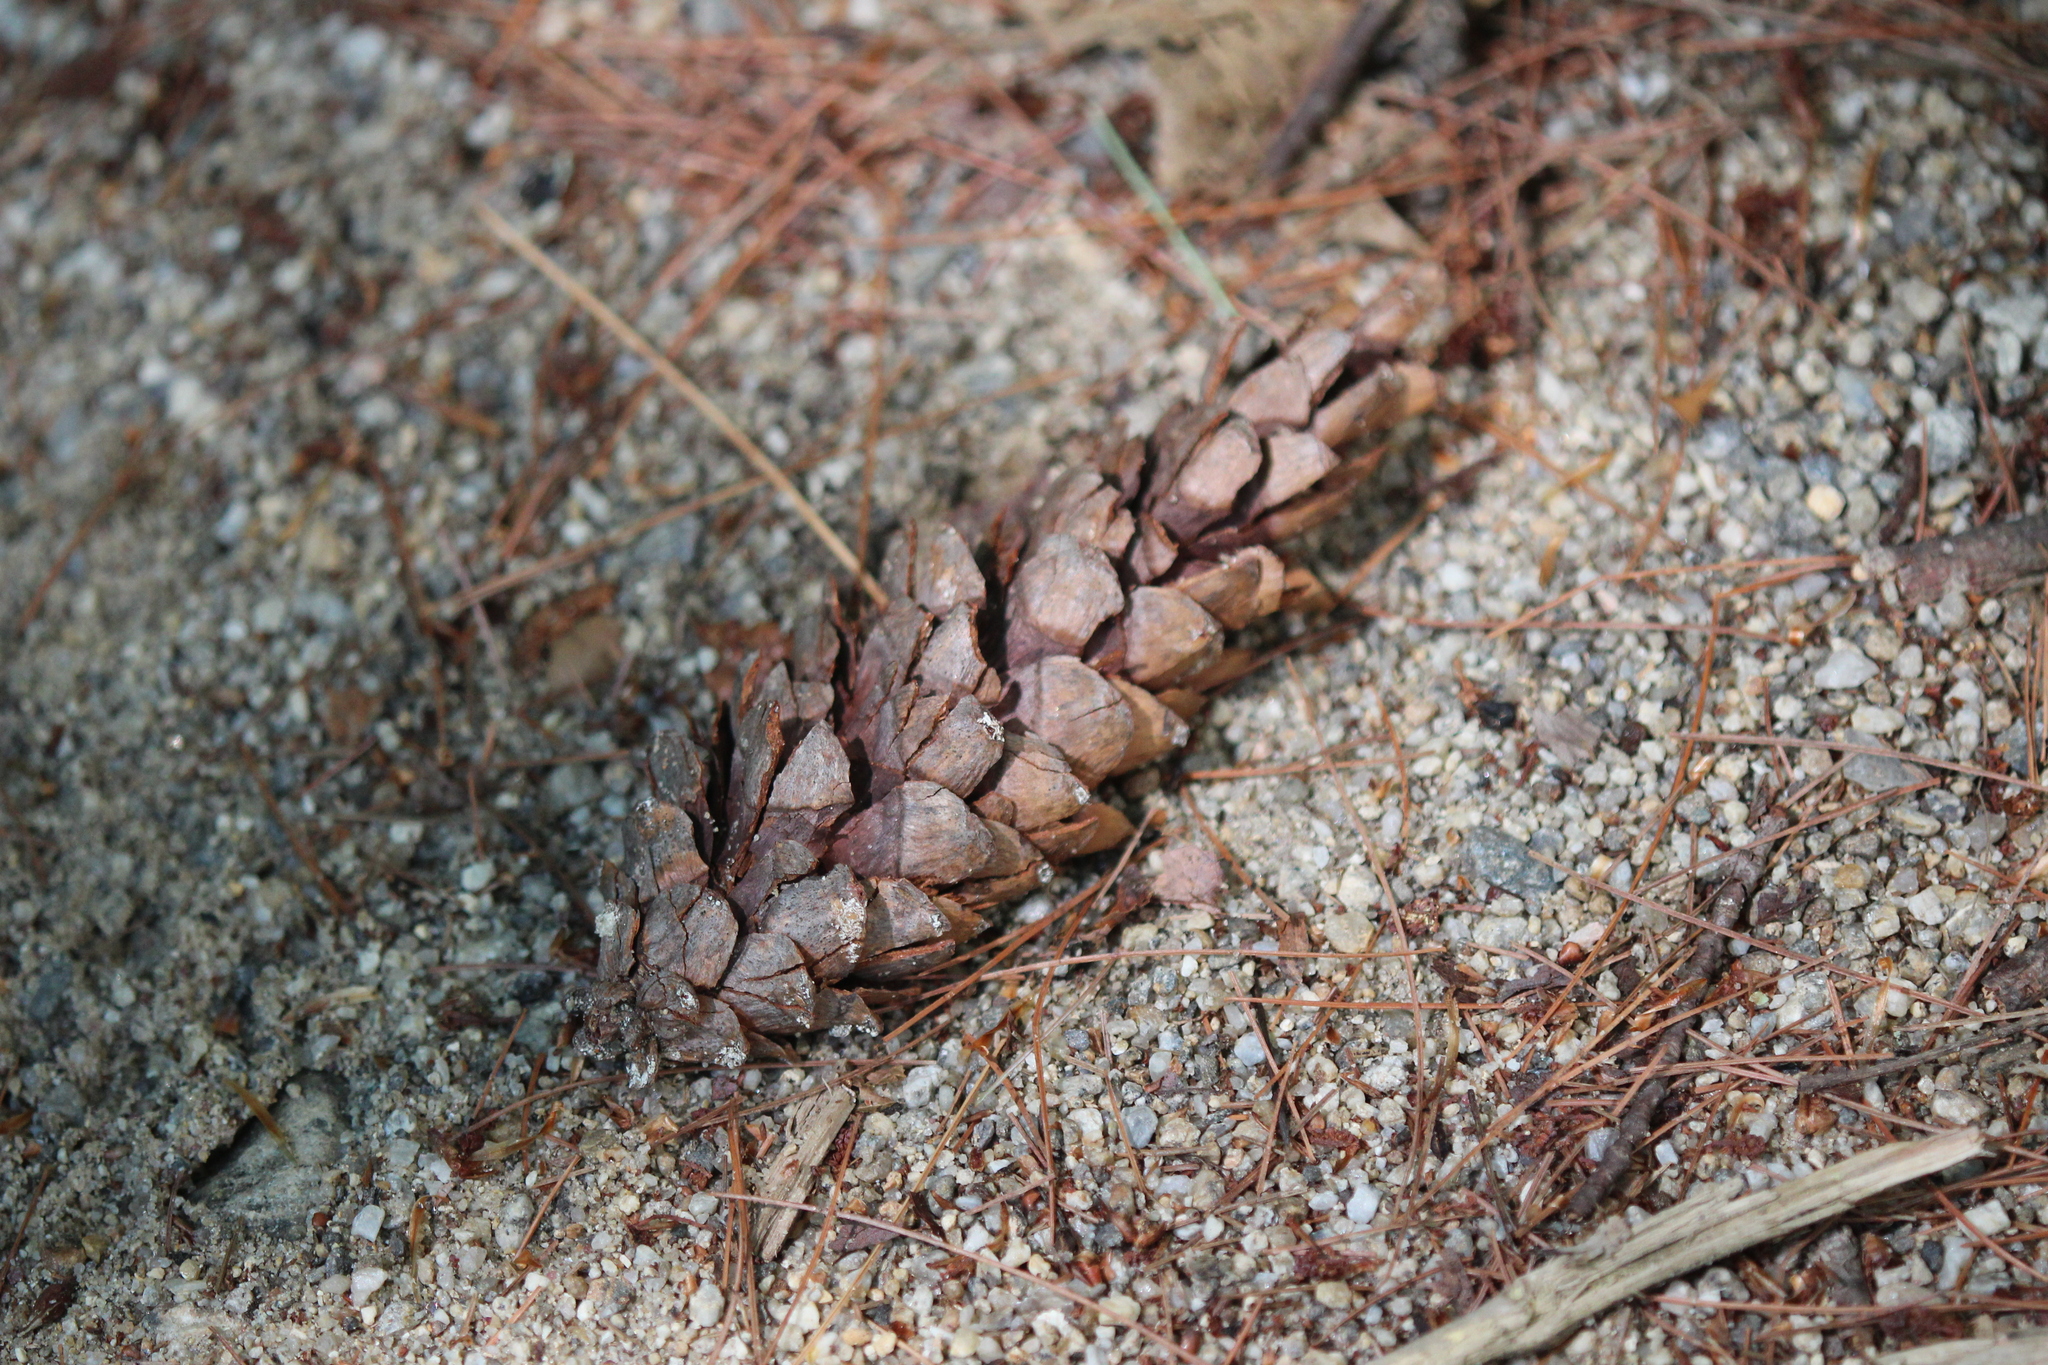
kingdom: Plantae
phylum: Tracheophyta
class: Pinopsida
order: Pinales
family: Pinaceae
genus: Pinus
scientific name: Pinus strobus
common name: Weymouth pine
